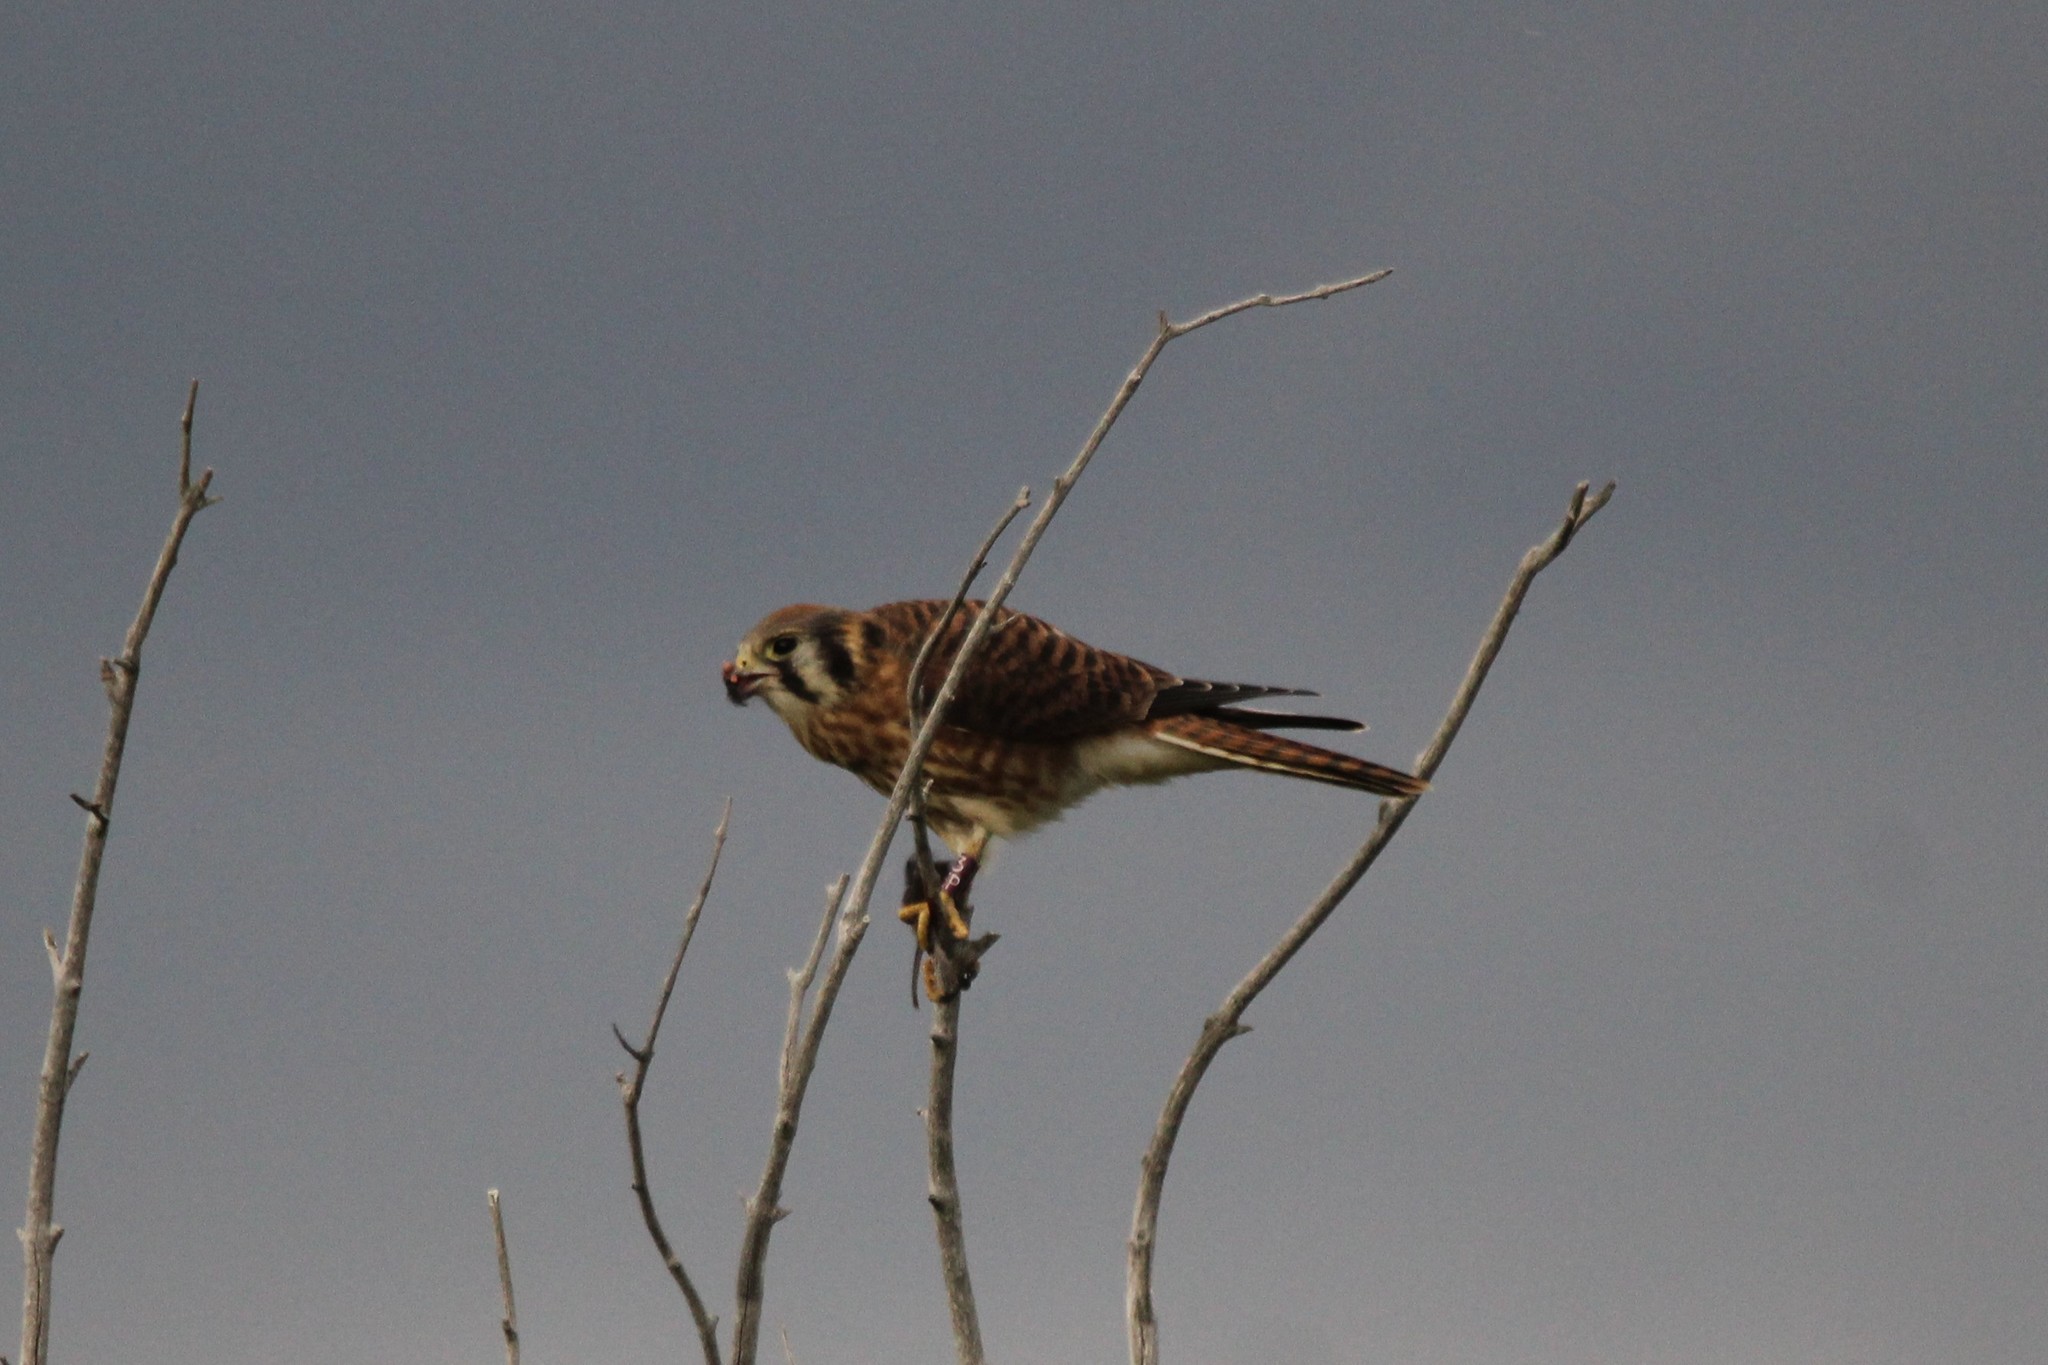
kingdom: Animalia
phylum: Chordata
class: Aves
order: Falconiformes
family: Falconidae
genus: Falco
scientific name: Falco sparverius
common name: American kestrel
